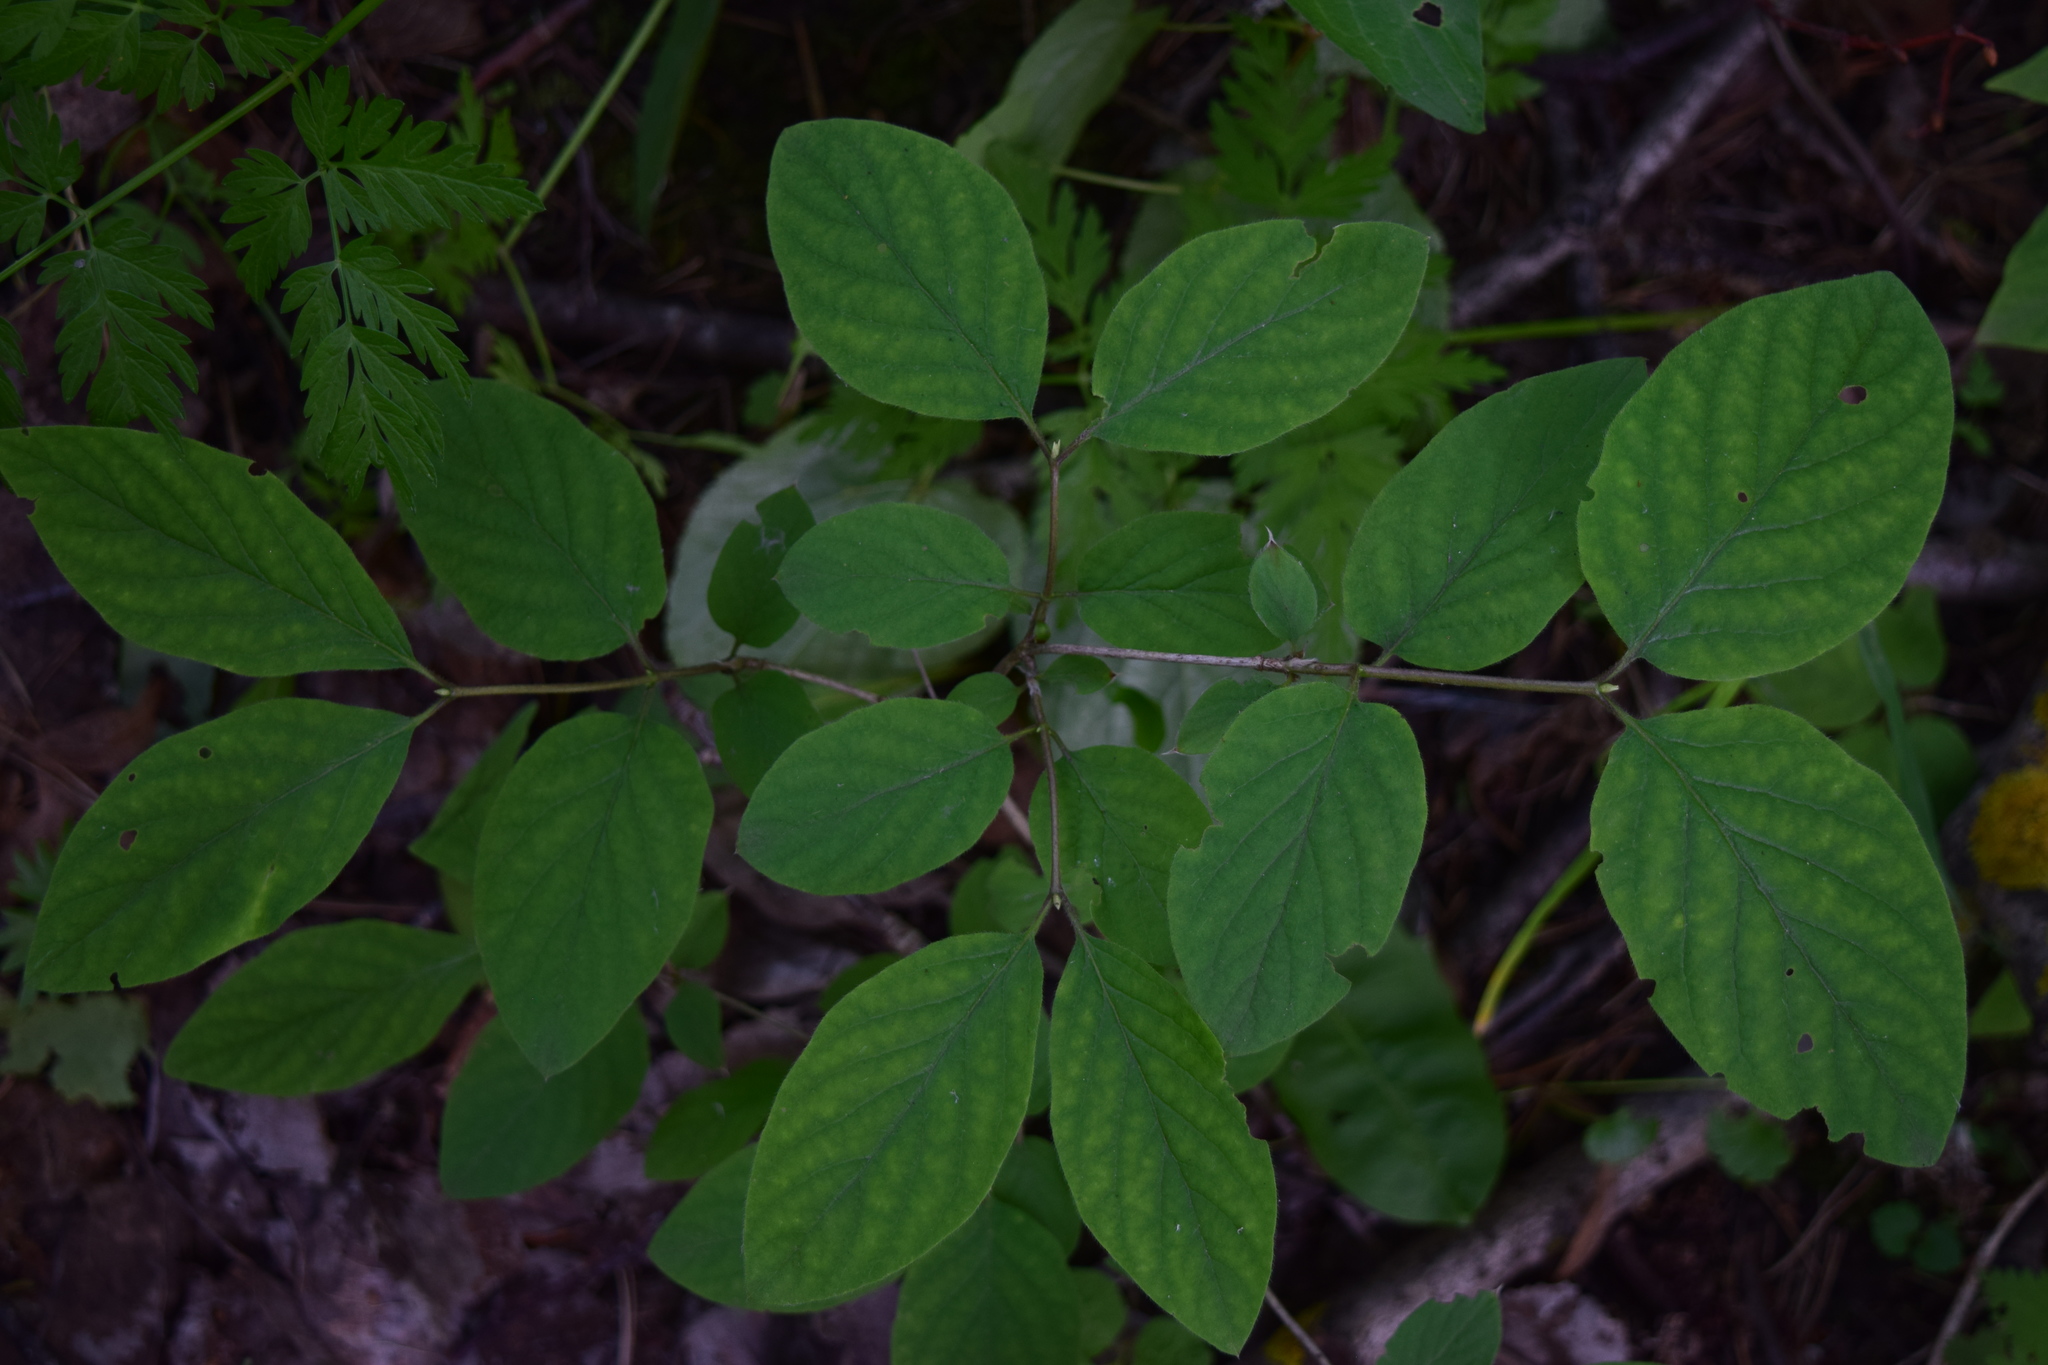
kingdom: Plantae
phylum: Tracheophyta
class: Magnoliopsida
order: Dipsacales
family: Caprifoliaceae
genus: Lonicera
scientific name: Lonicera xylosteum
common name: Fly honeysuckle
